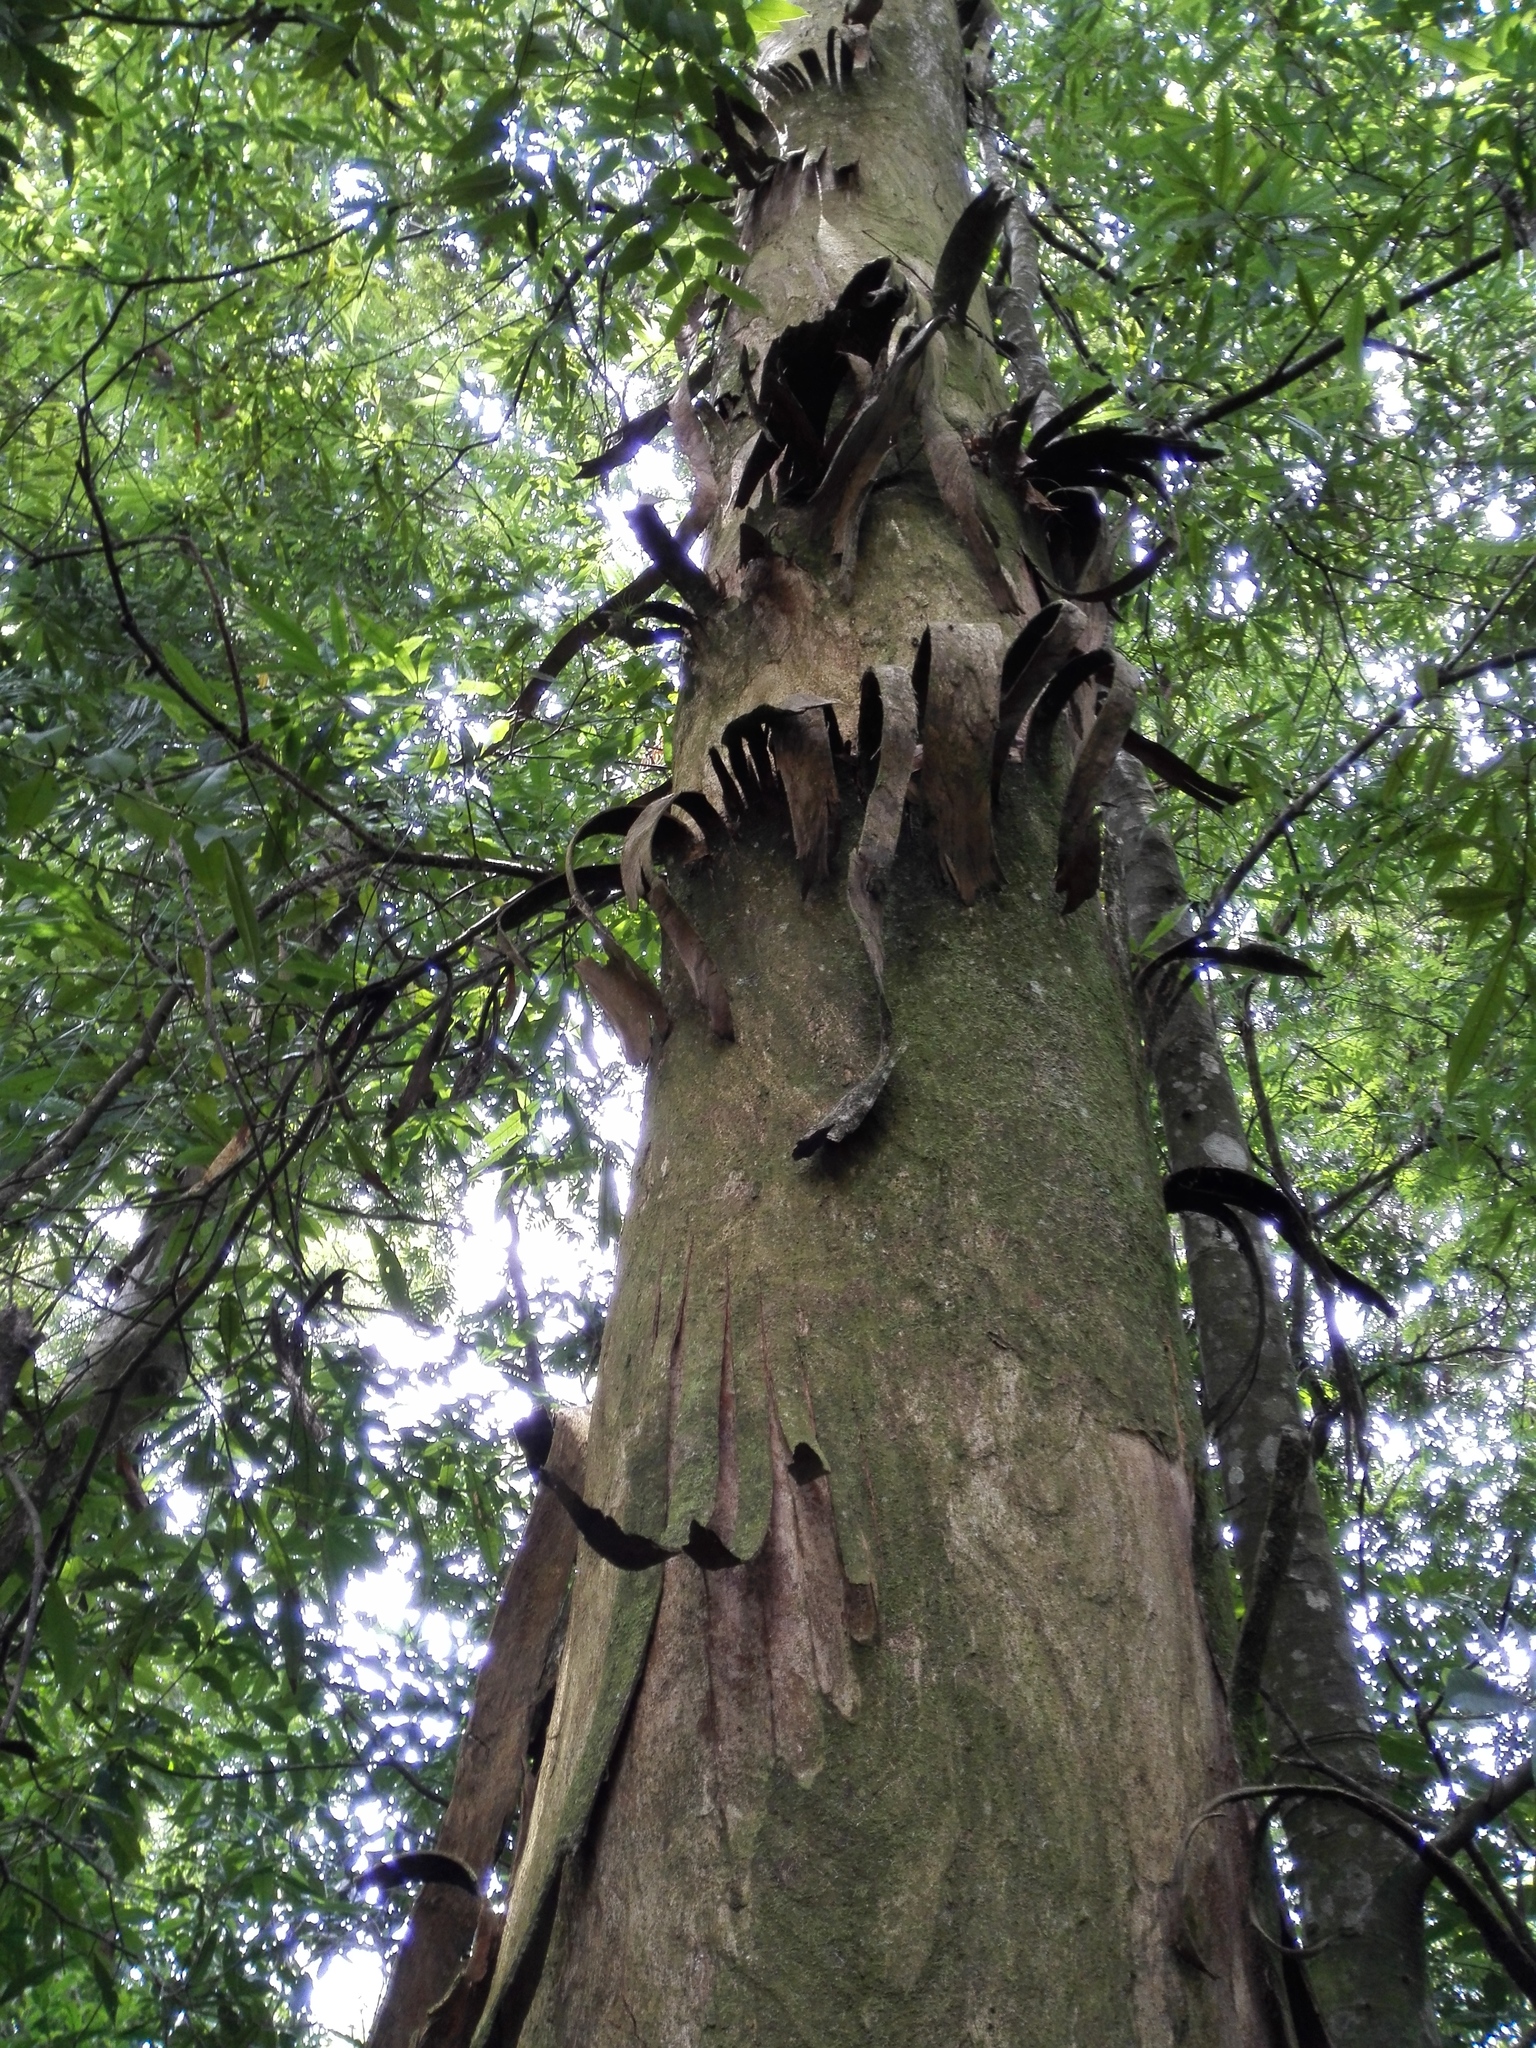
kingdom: Plantae
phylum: Tracheophyta
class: Magnoliopsida
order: Fagales
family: Juglandaceae
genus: Oreomunnea
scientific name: Oreomunnea mexicana
